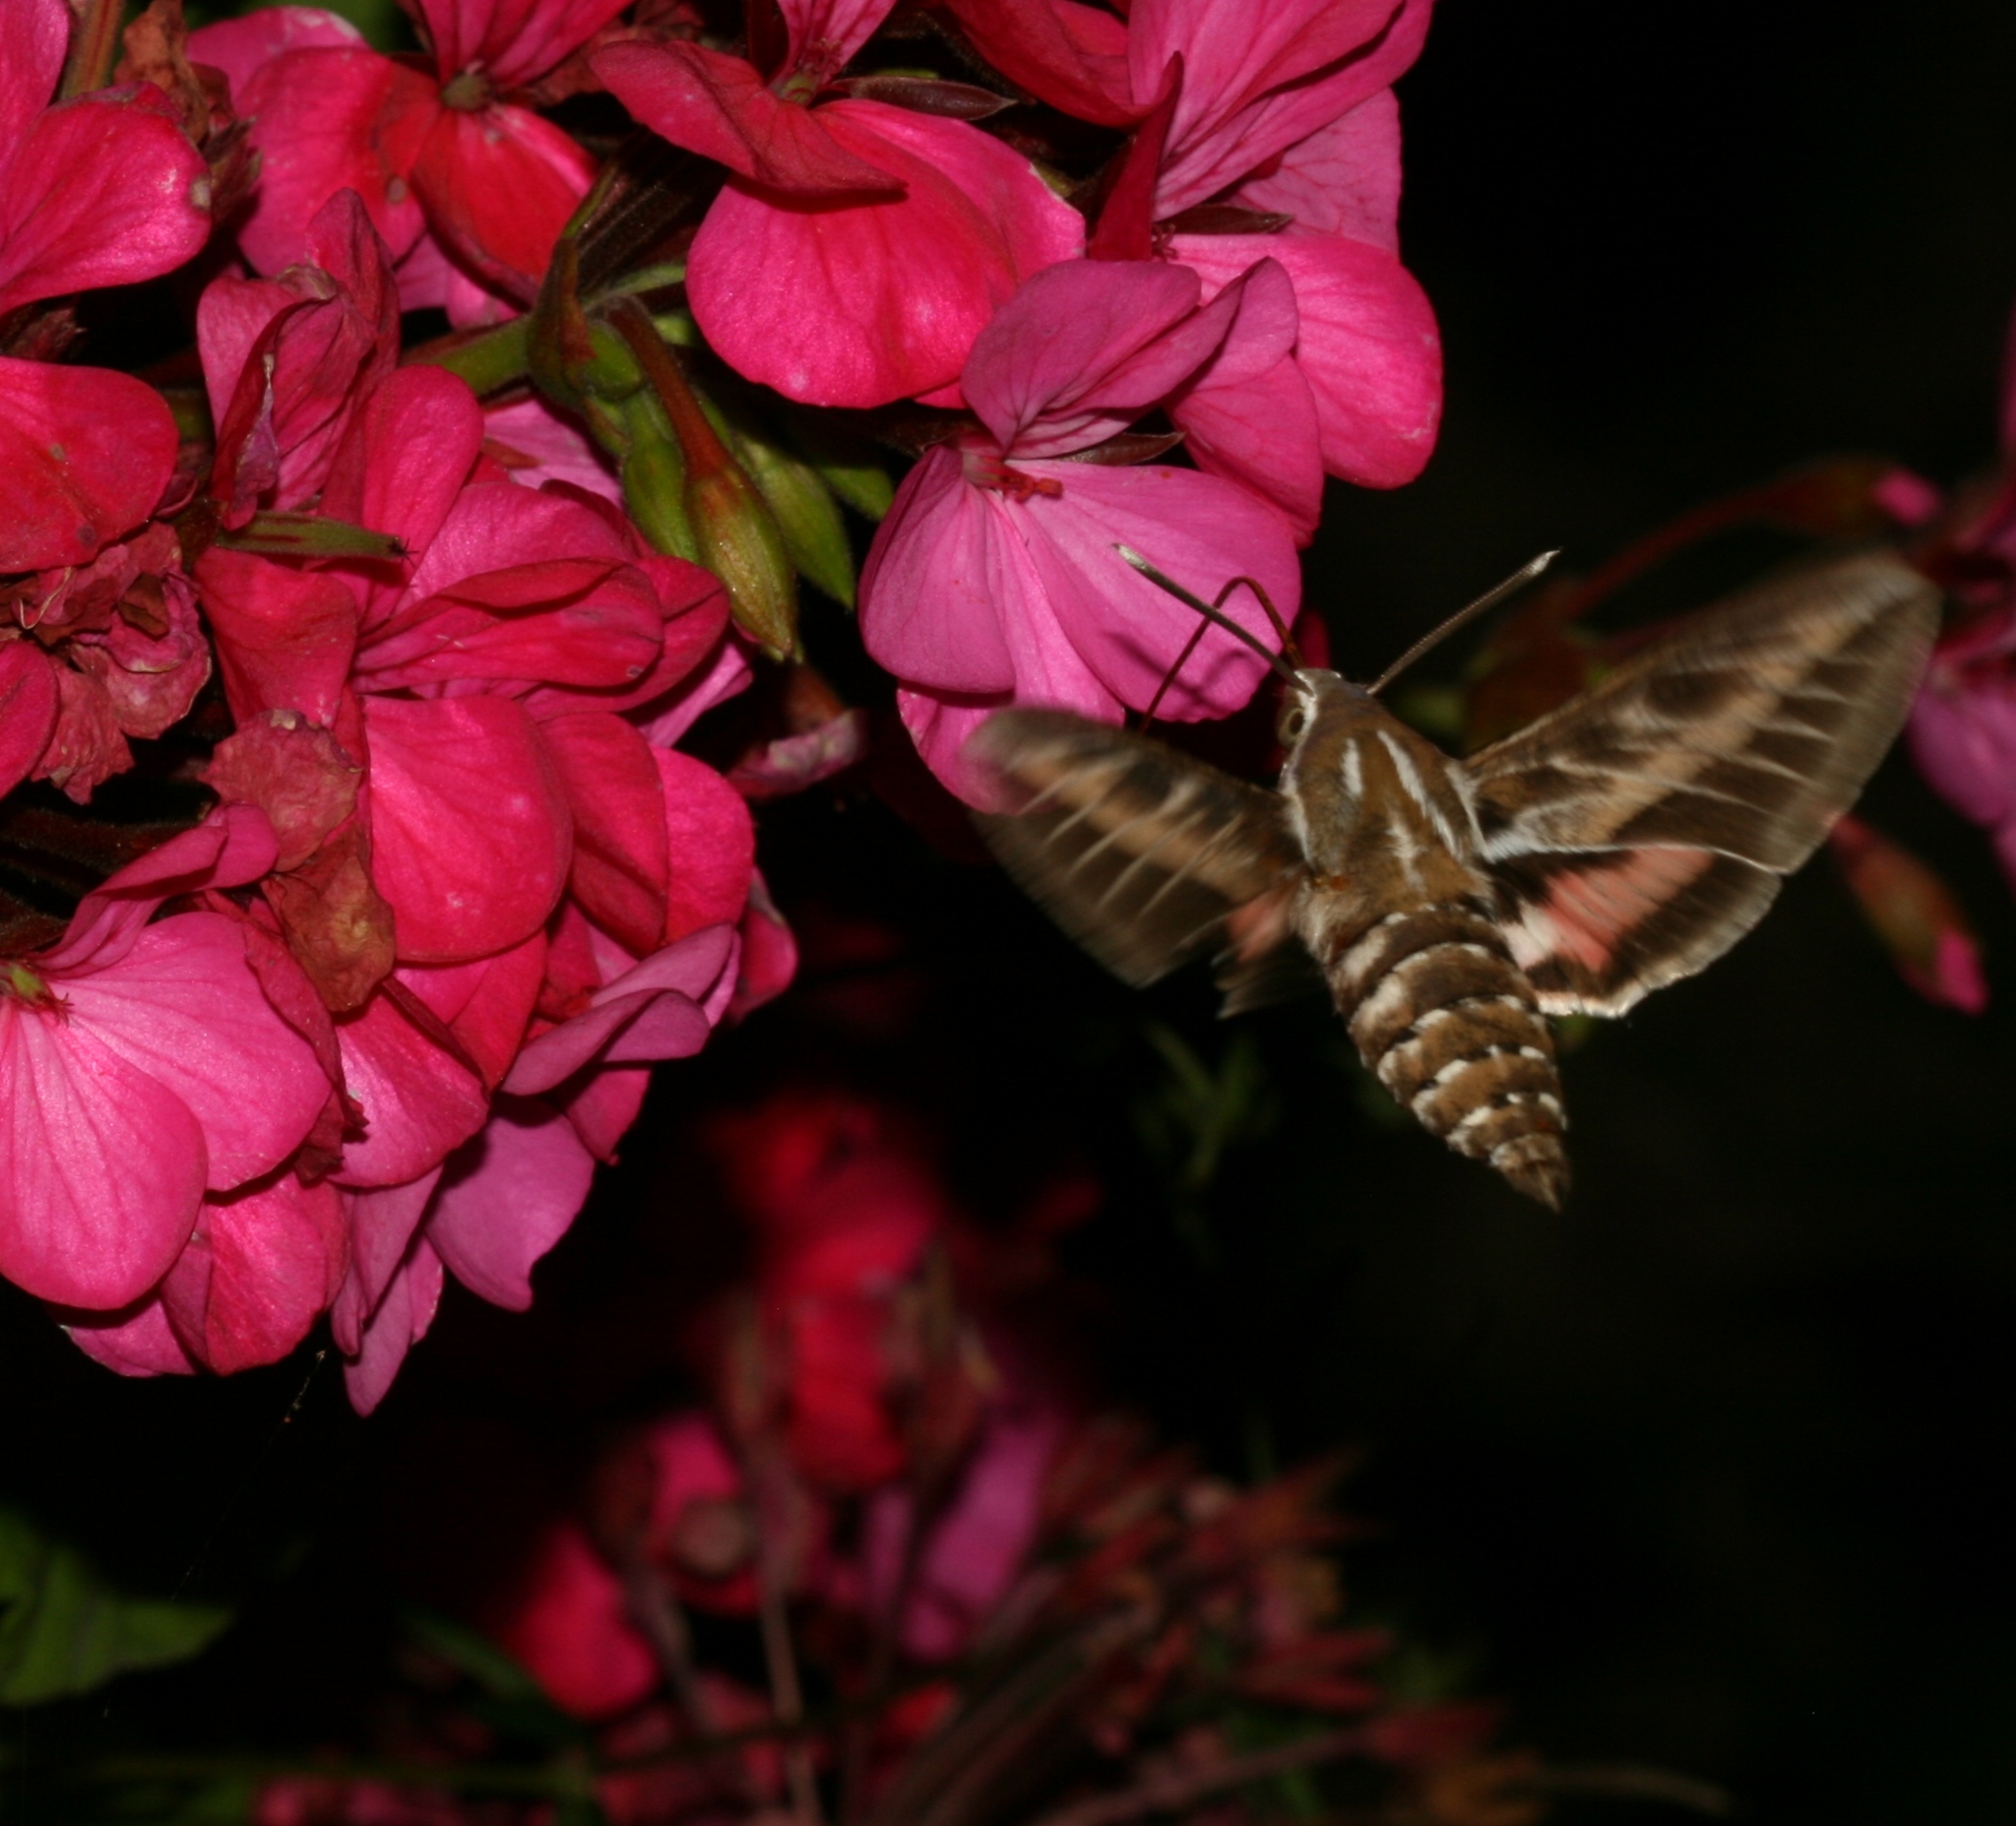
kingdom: Animalia
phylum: Arthropoda
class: Insecta
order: Lepidoptera
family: Sphingidae
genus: Hyles
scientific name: Hyles livornica
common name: Striped hawk-moth
